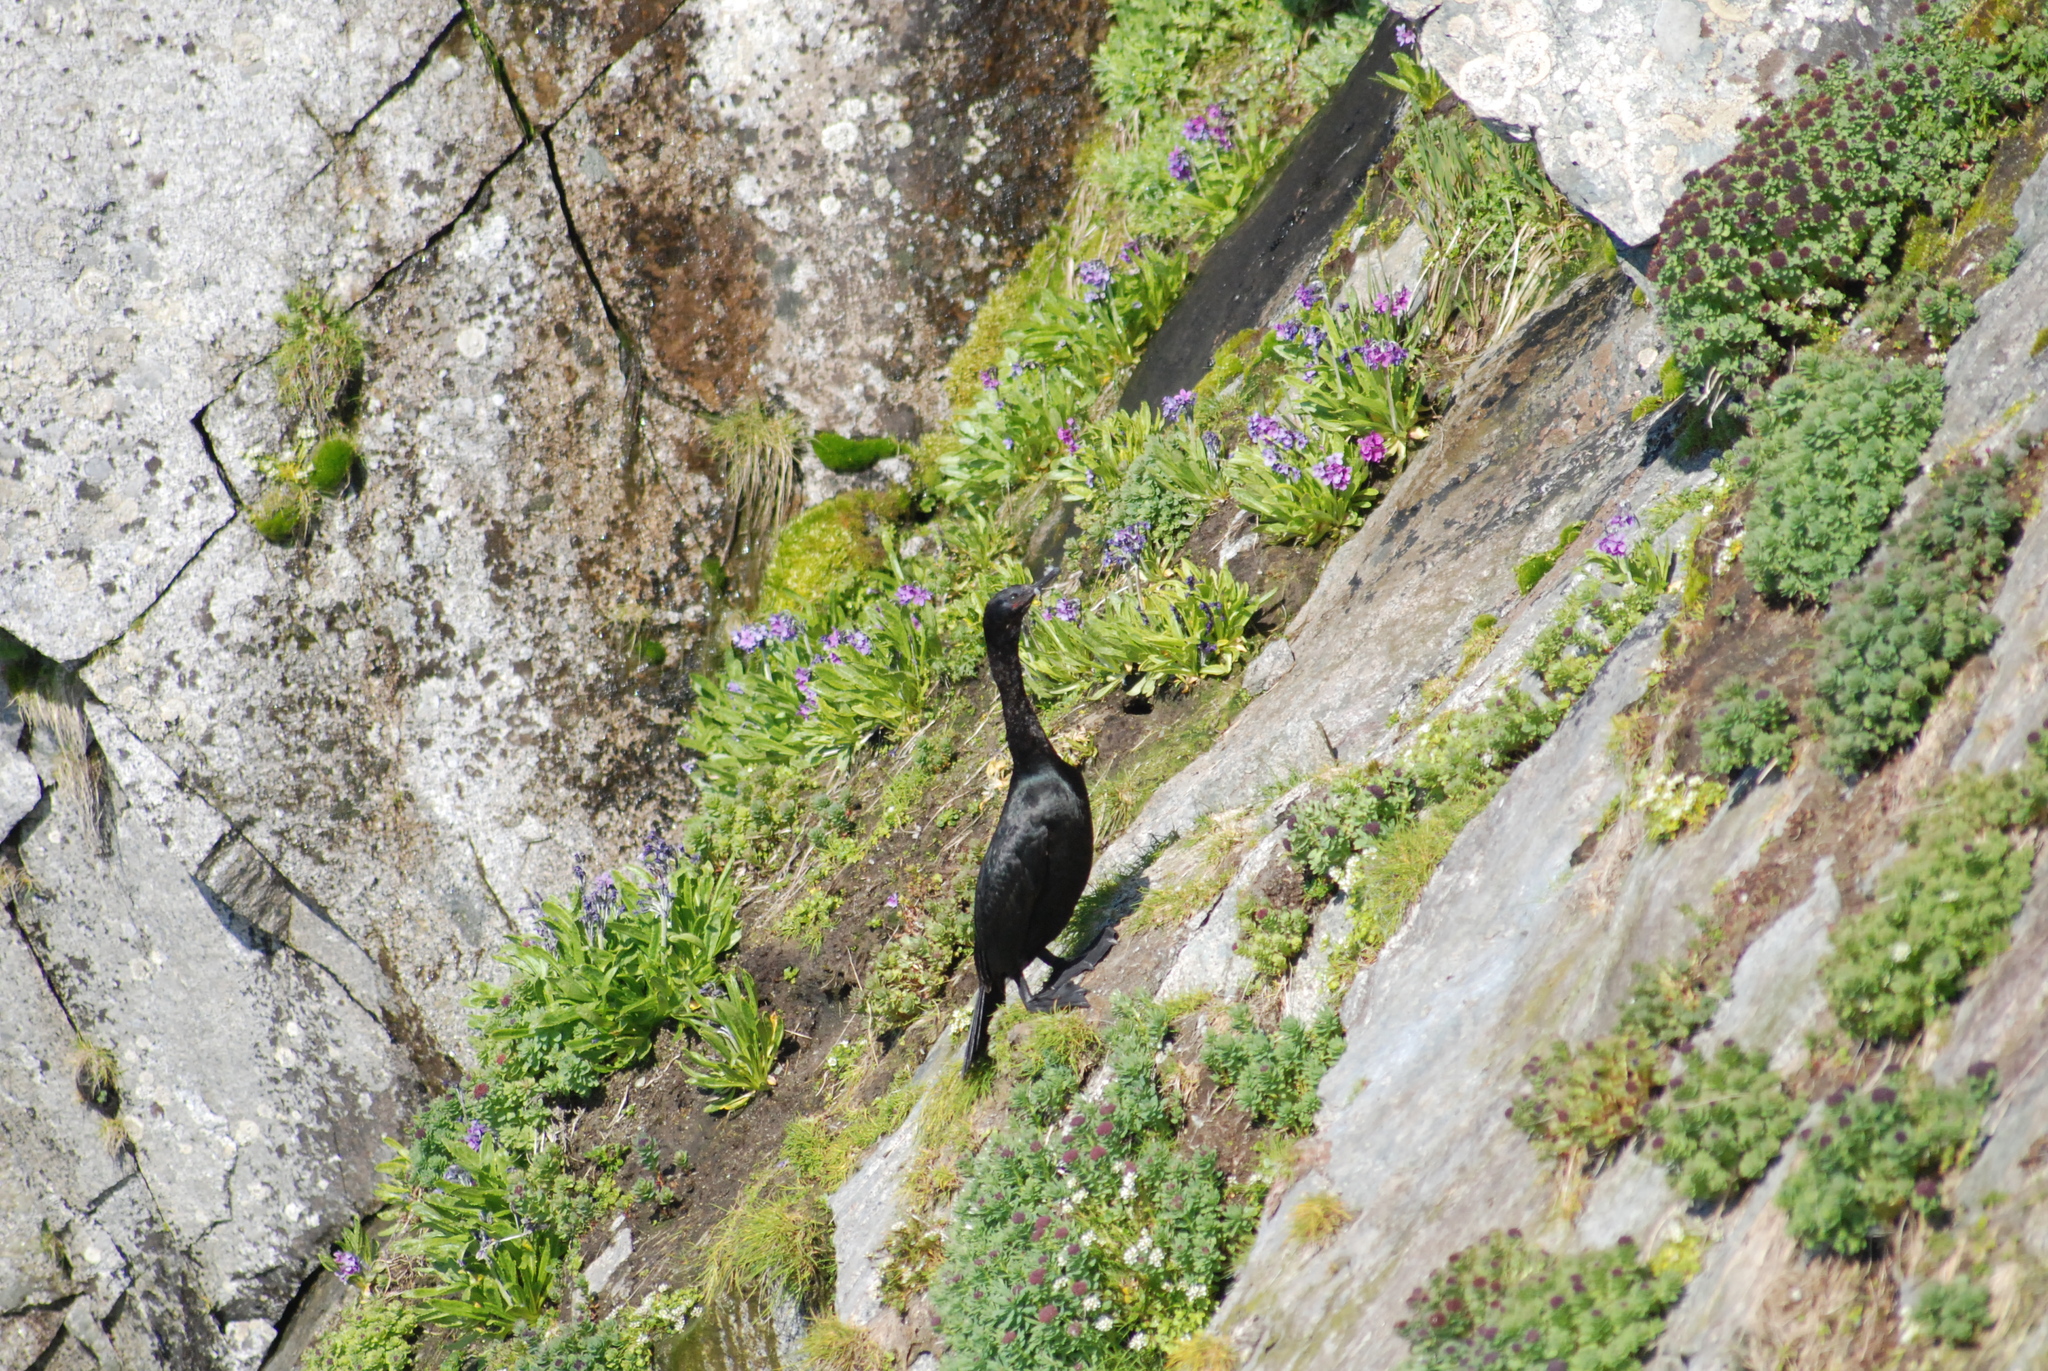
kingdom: Animalia
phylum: Chordata
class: Aves
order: Suliformes
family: Phalacrocoracidae
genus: Phalacrocorax
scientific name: Phalacrocorax pelagicus
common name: Pelagic cormorant
